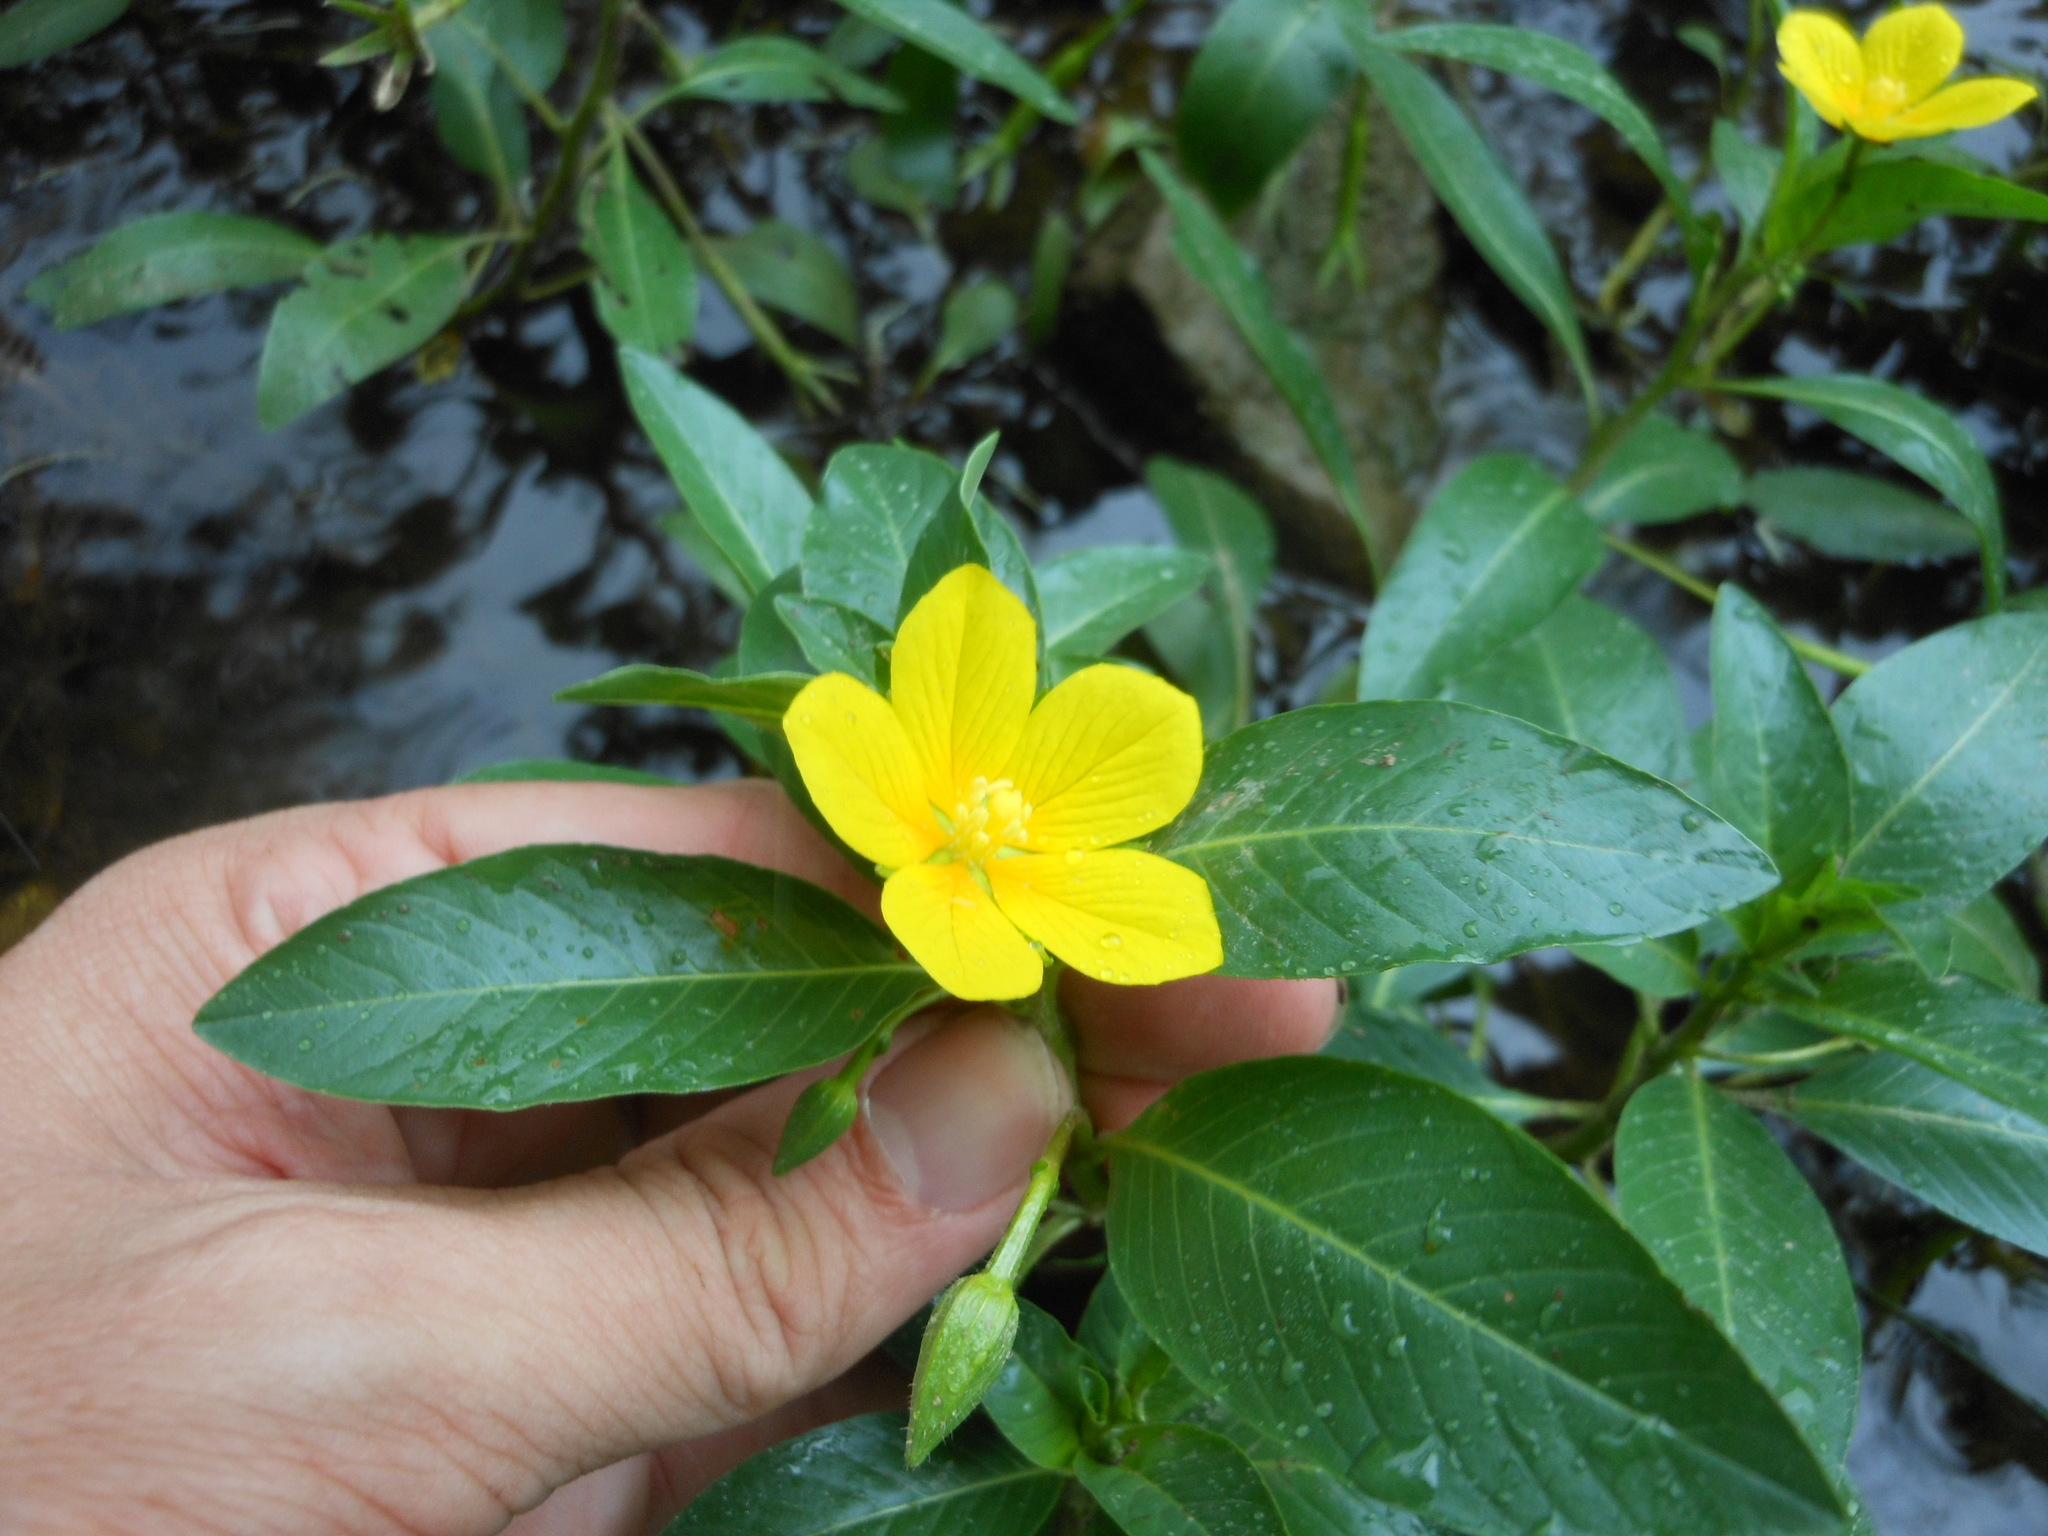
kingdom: Plantae
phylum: Tracheophyta
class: Magnoliopsida
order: Myrtales
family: Onagraceae
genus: Ludwigia
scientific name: Ludwigia peploides
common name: Floating primrose-willow
